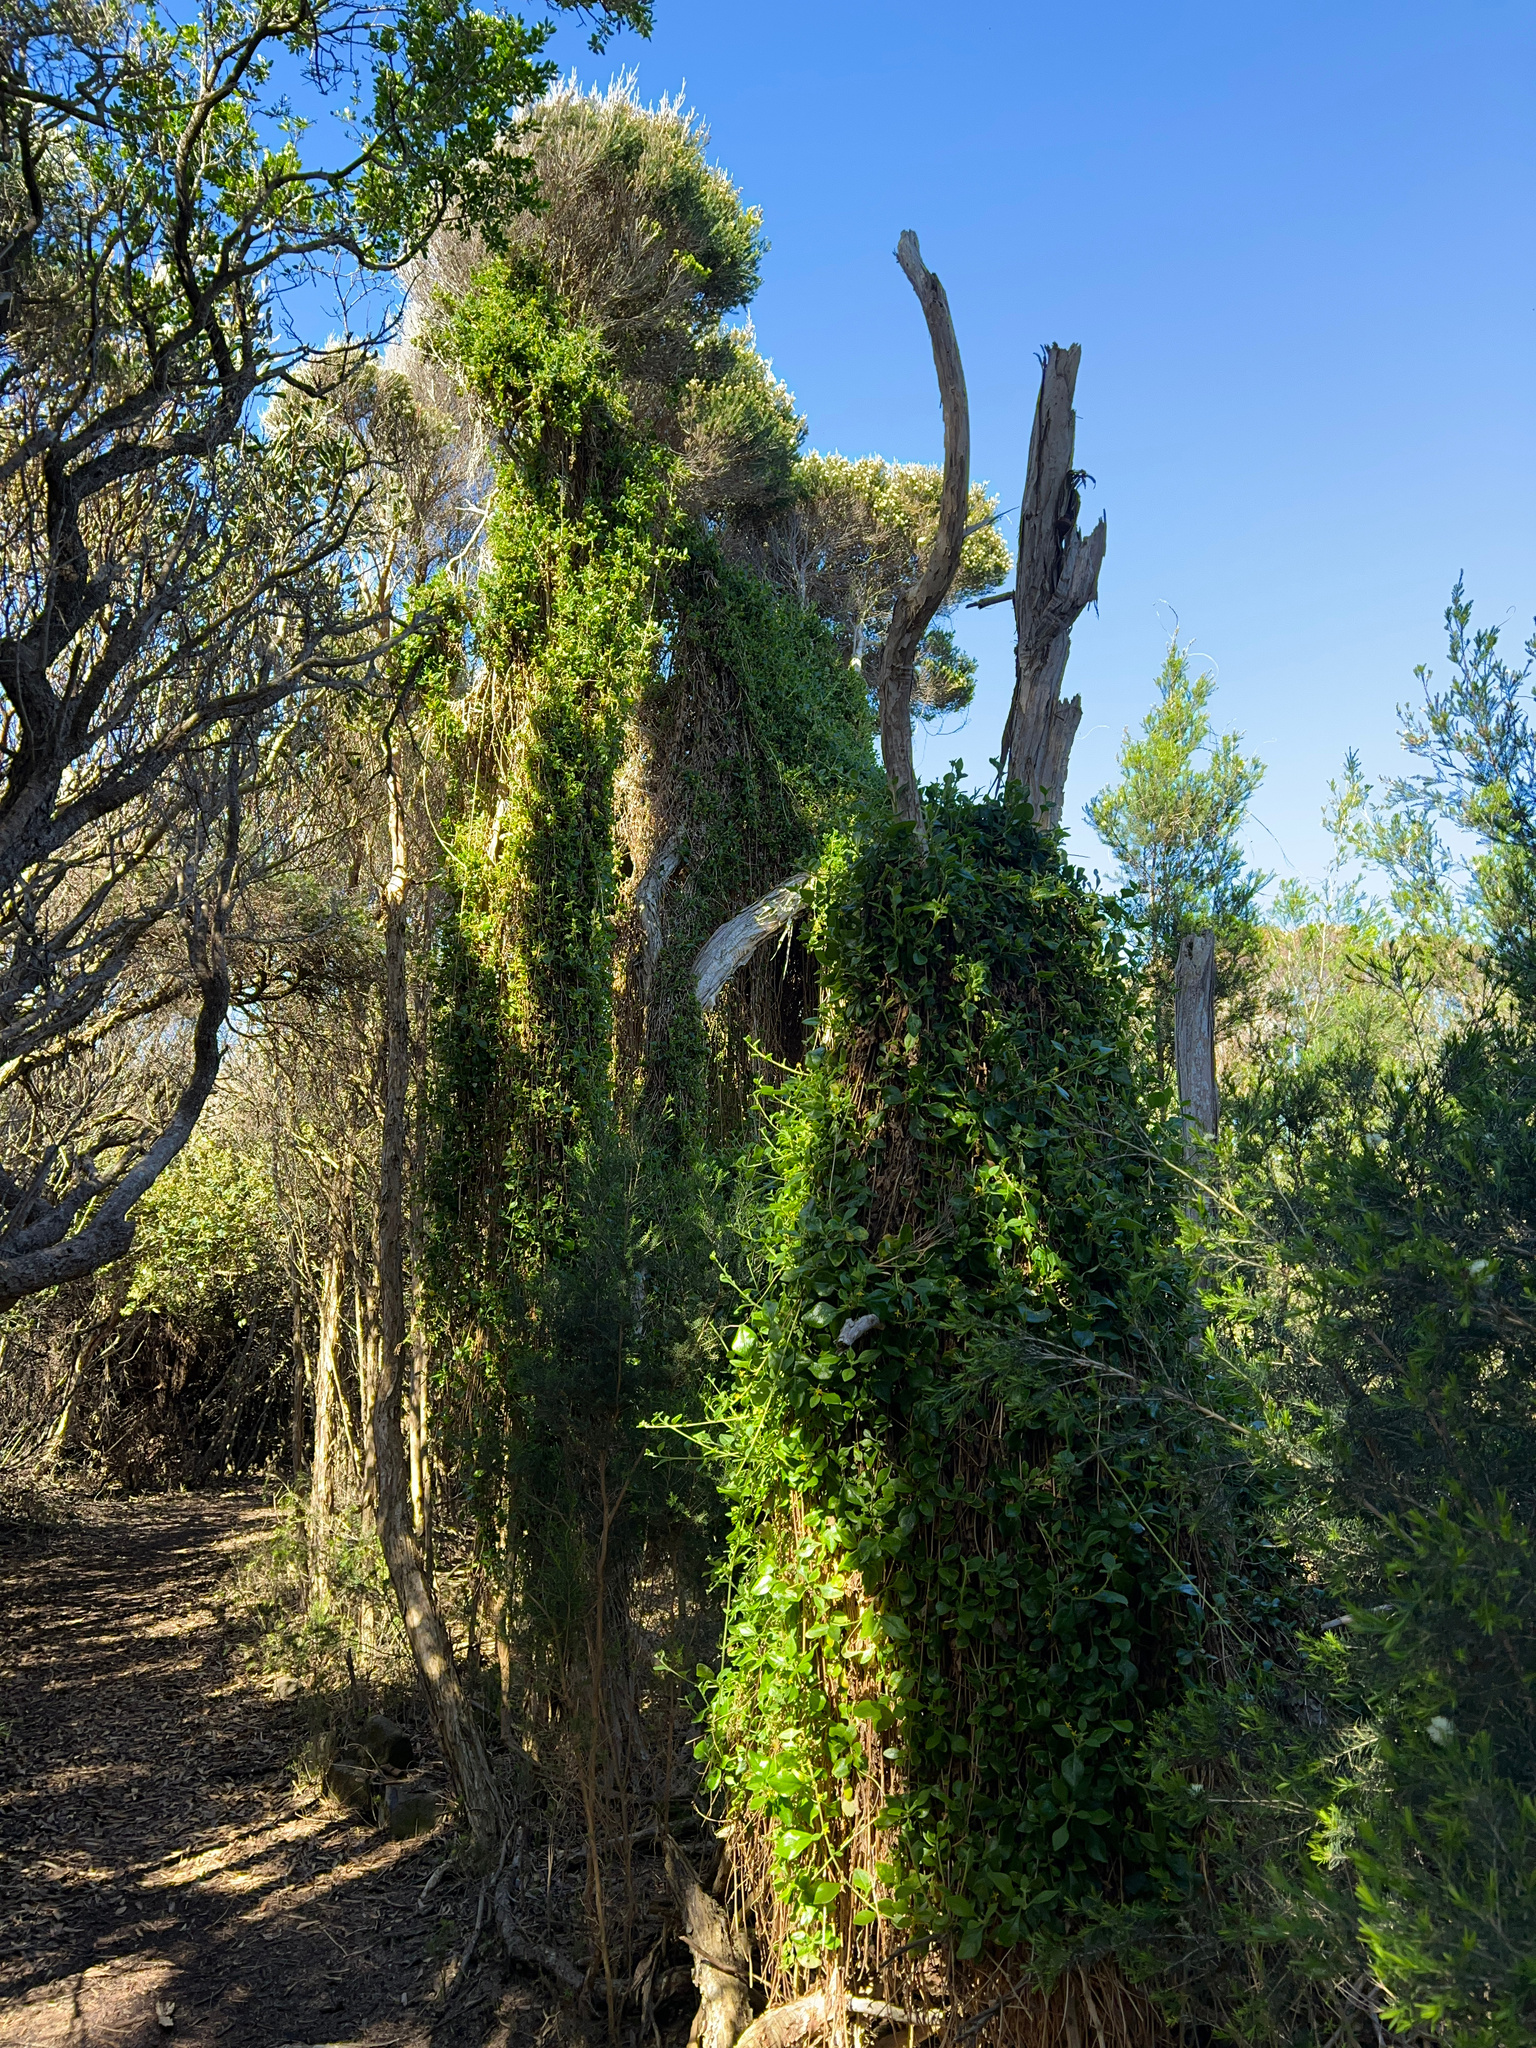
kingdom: Plantae
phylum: Tracheophyta
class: Magnoliopsida
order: Caryophyllales
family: Aizoaceae
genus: Tetragonia
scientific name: Tetragonia implexicoma
